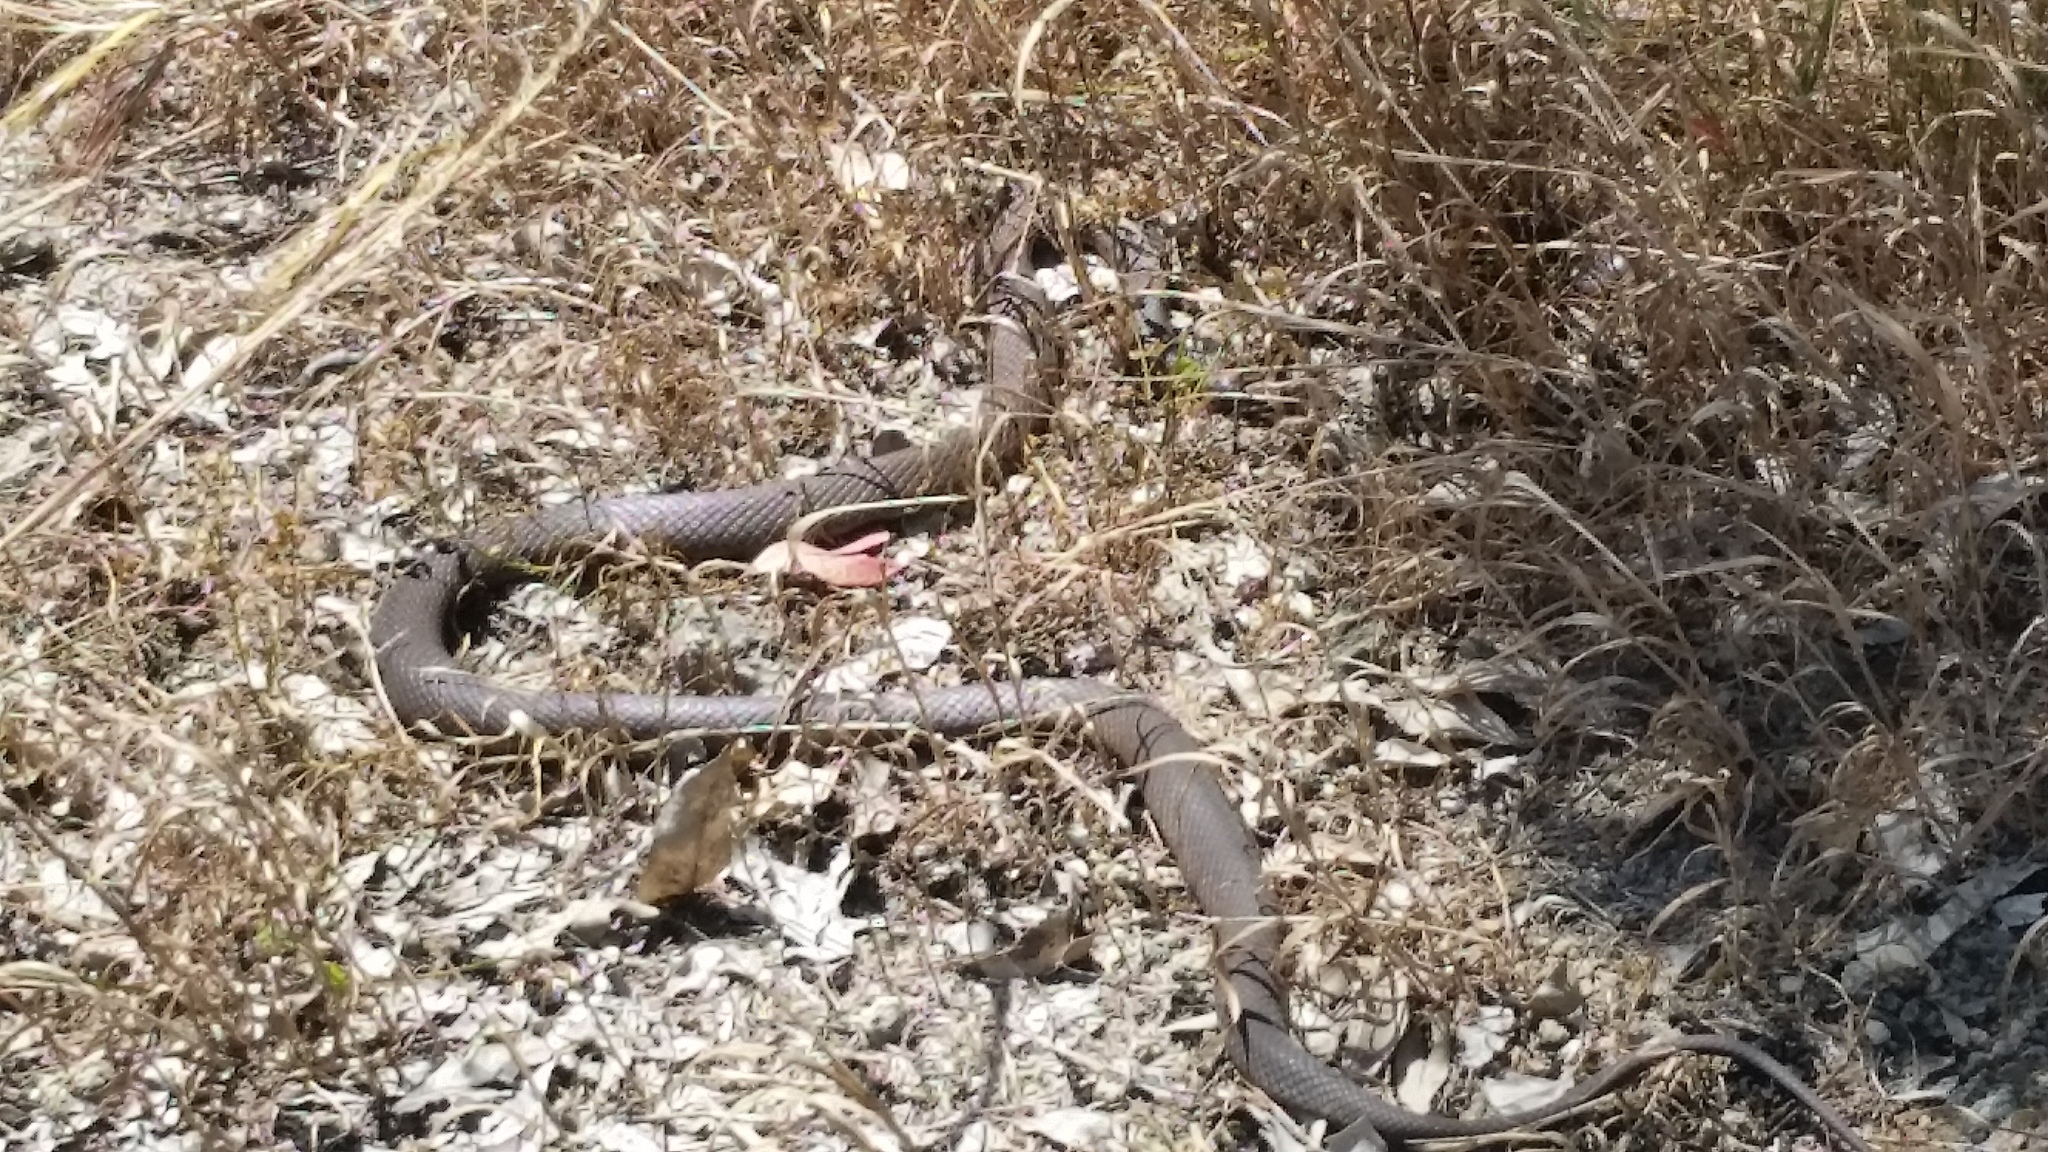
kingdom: Animalia
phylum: Chordata
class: Squamata
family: Elapidae
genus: Pseudonaja
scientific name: Pseudonaja affinis
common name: Dugite
